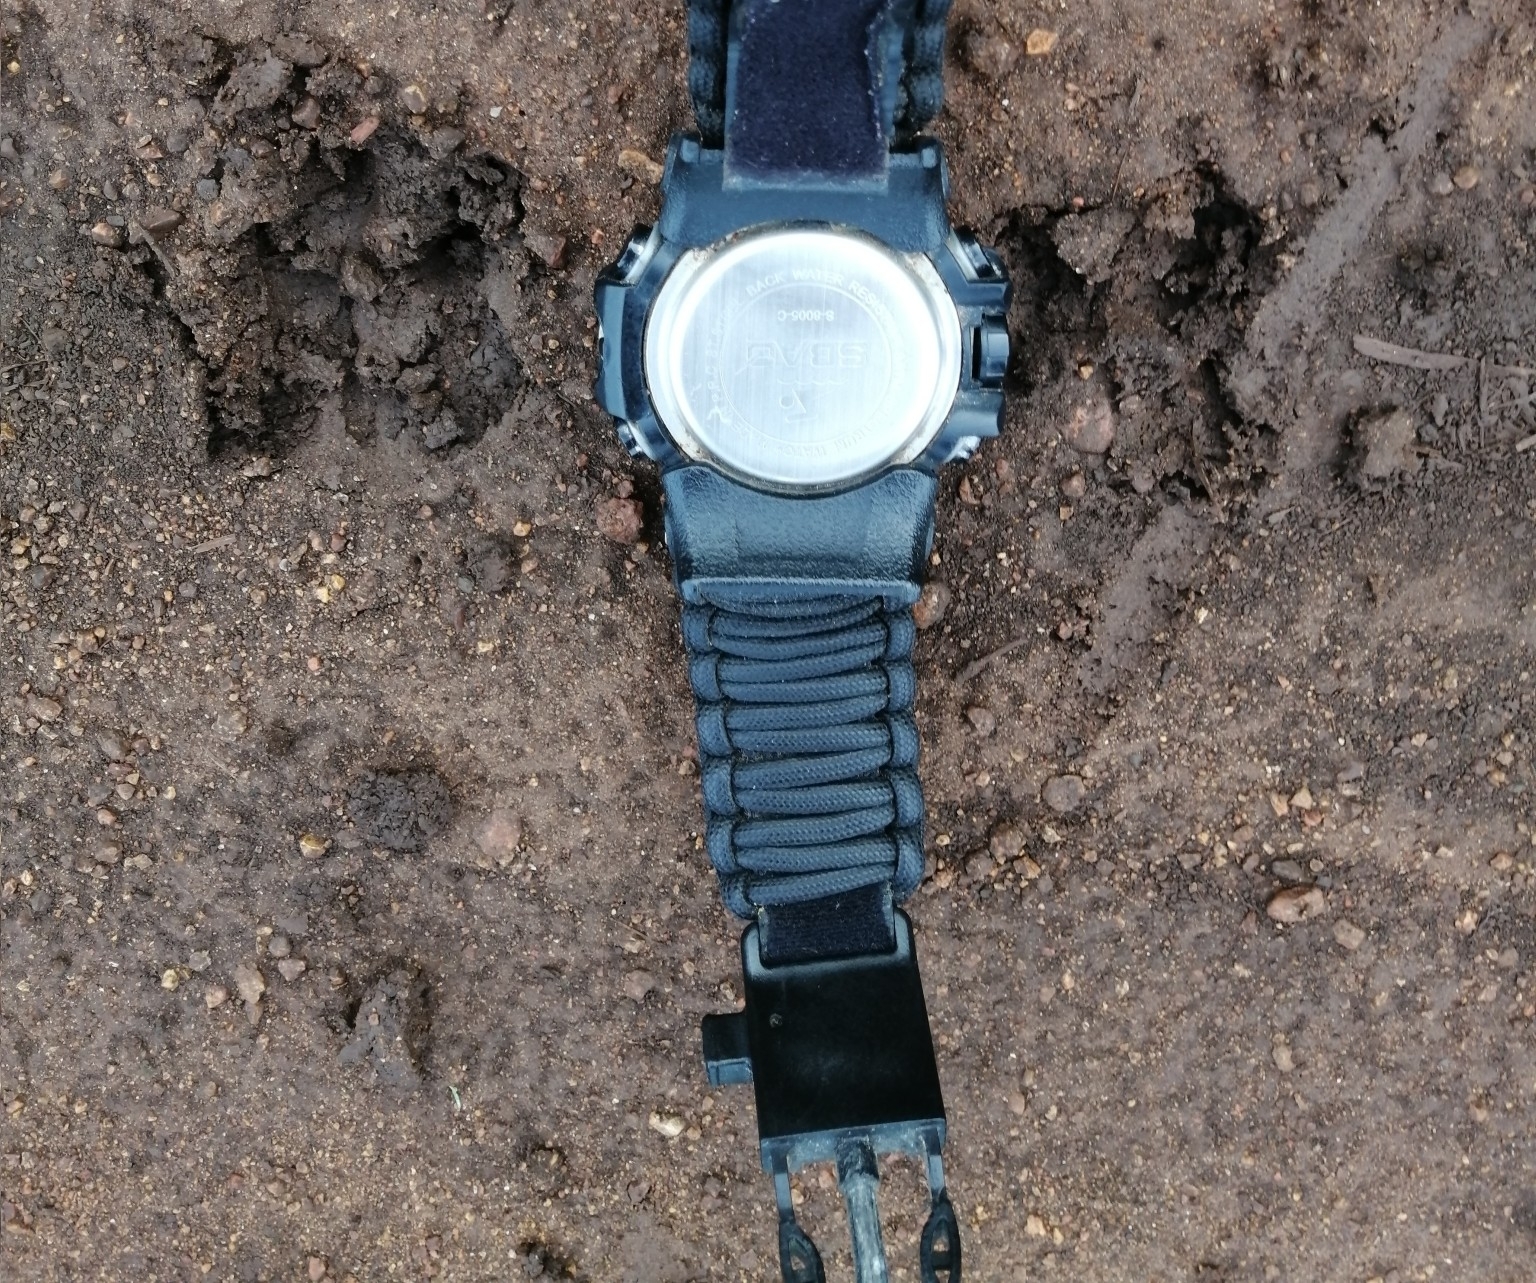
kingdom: Animalia
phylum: Chordata
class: Mammalia
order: Cingulata
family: Dasypodidae
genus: Dasypus
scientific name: Dasypus novemcinctus
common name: Nine-banded armadillo
